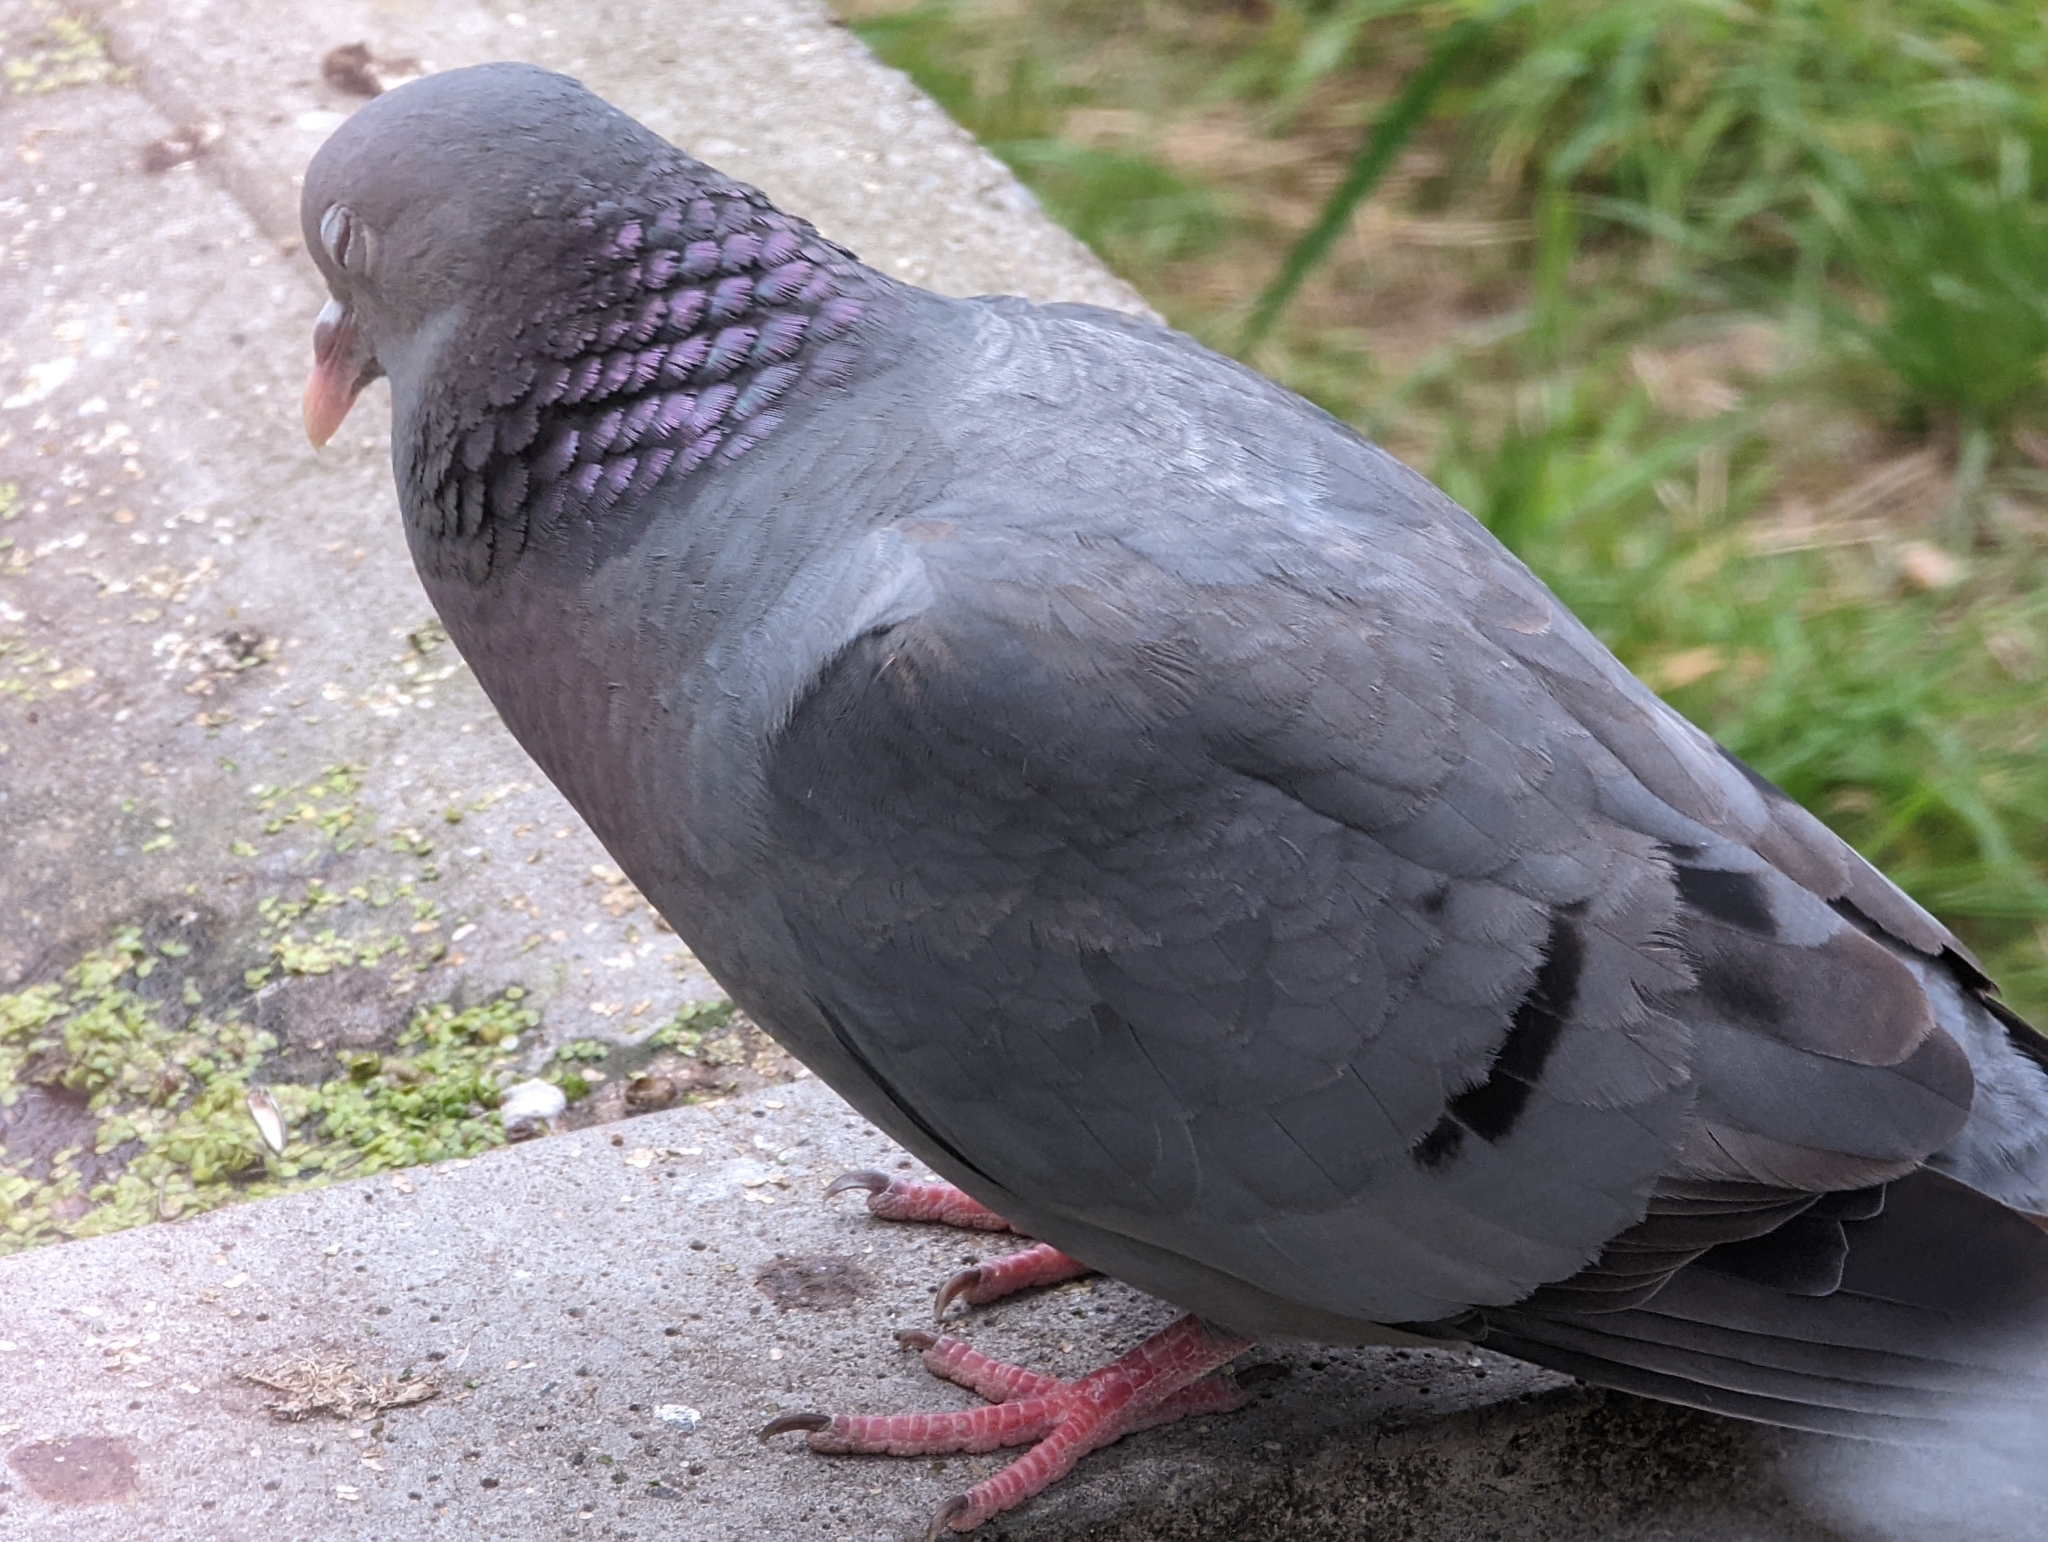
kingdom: Animalia
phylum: Chordata
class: Aves
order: Columbiformes
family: Columbidae
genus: Columba
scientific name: Columba oenas
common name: Stock dove
